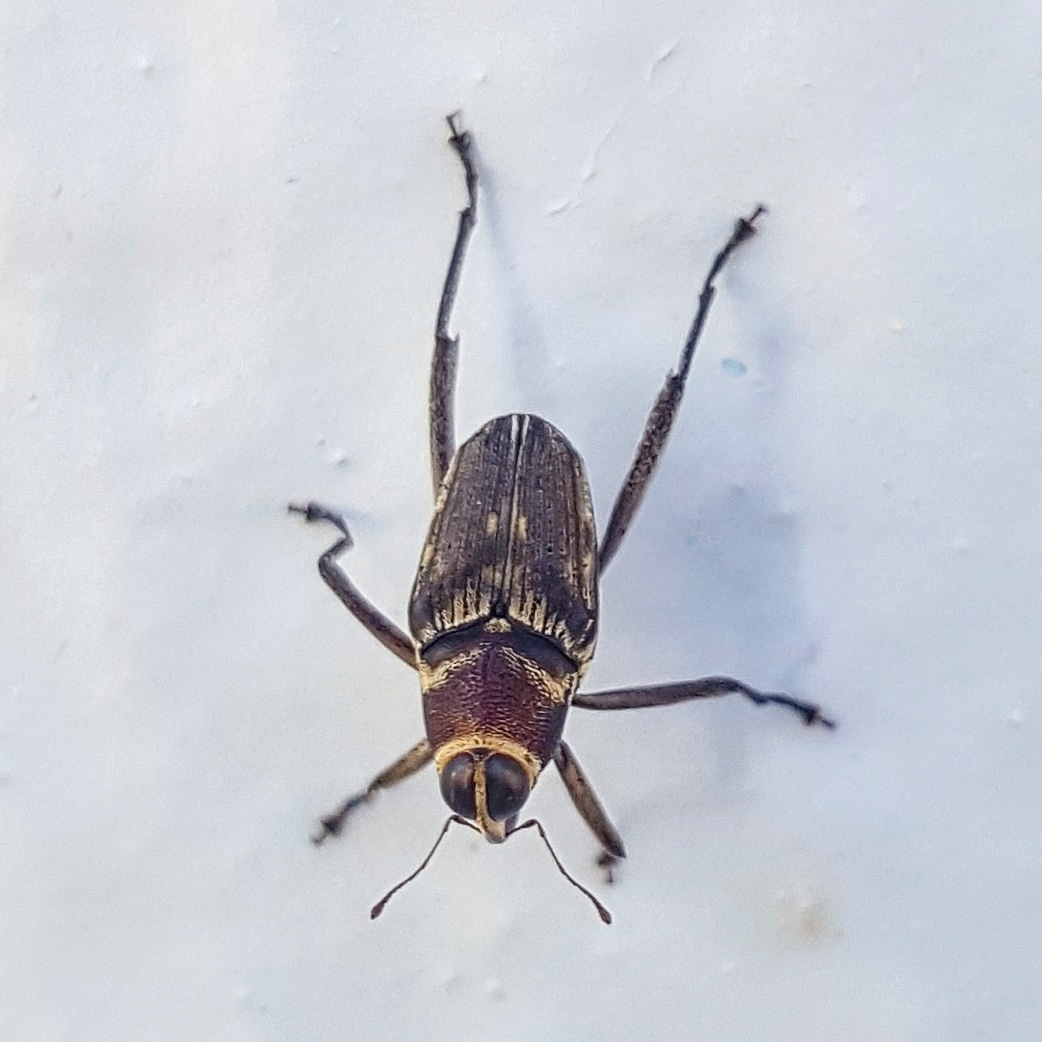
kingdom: Animalia
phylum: Arthropoda
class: Insecta
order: Coleoptera
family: Curculionidae
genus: Hoplocopturus
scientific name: Hoplocopturus javeti
